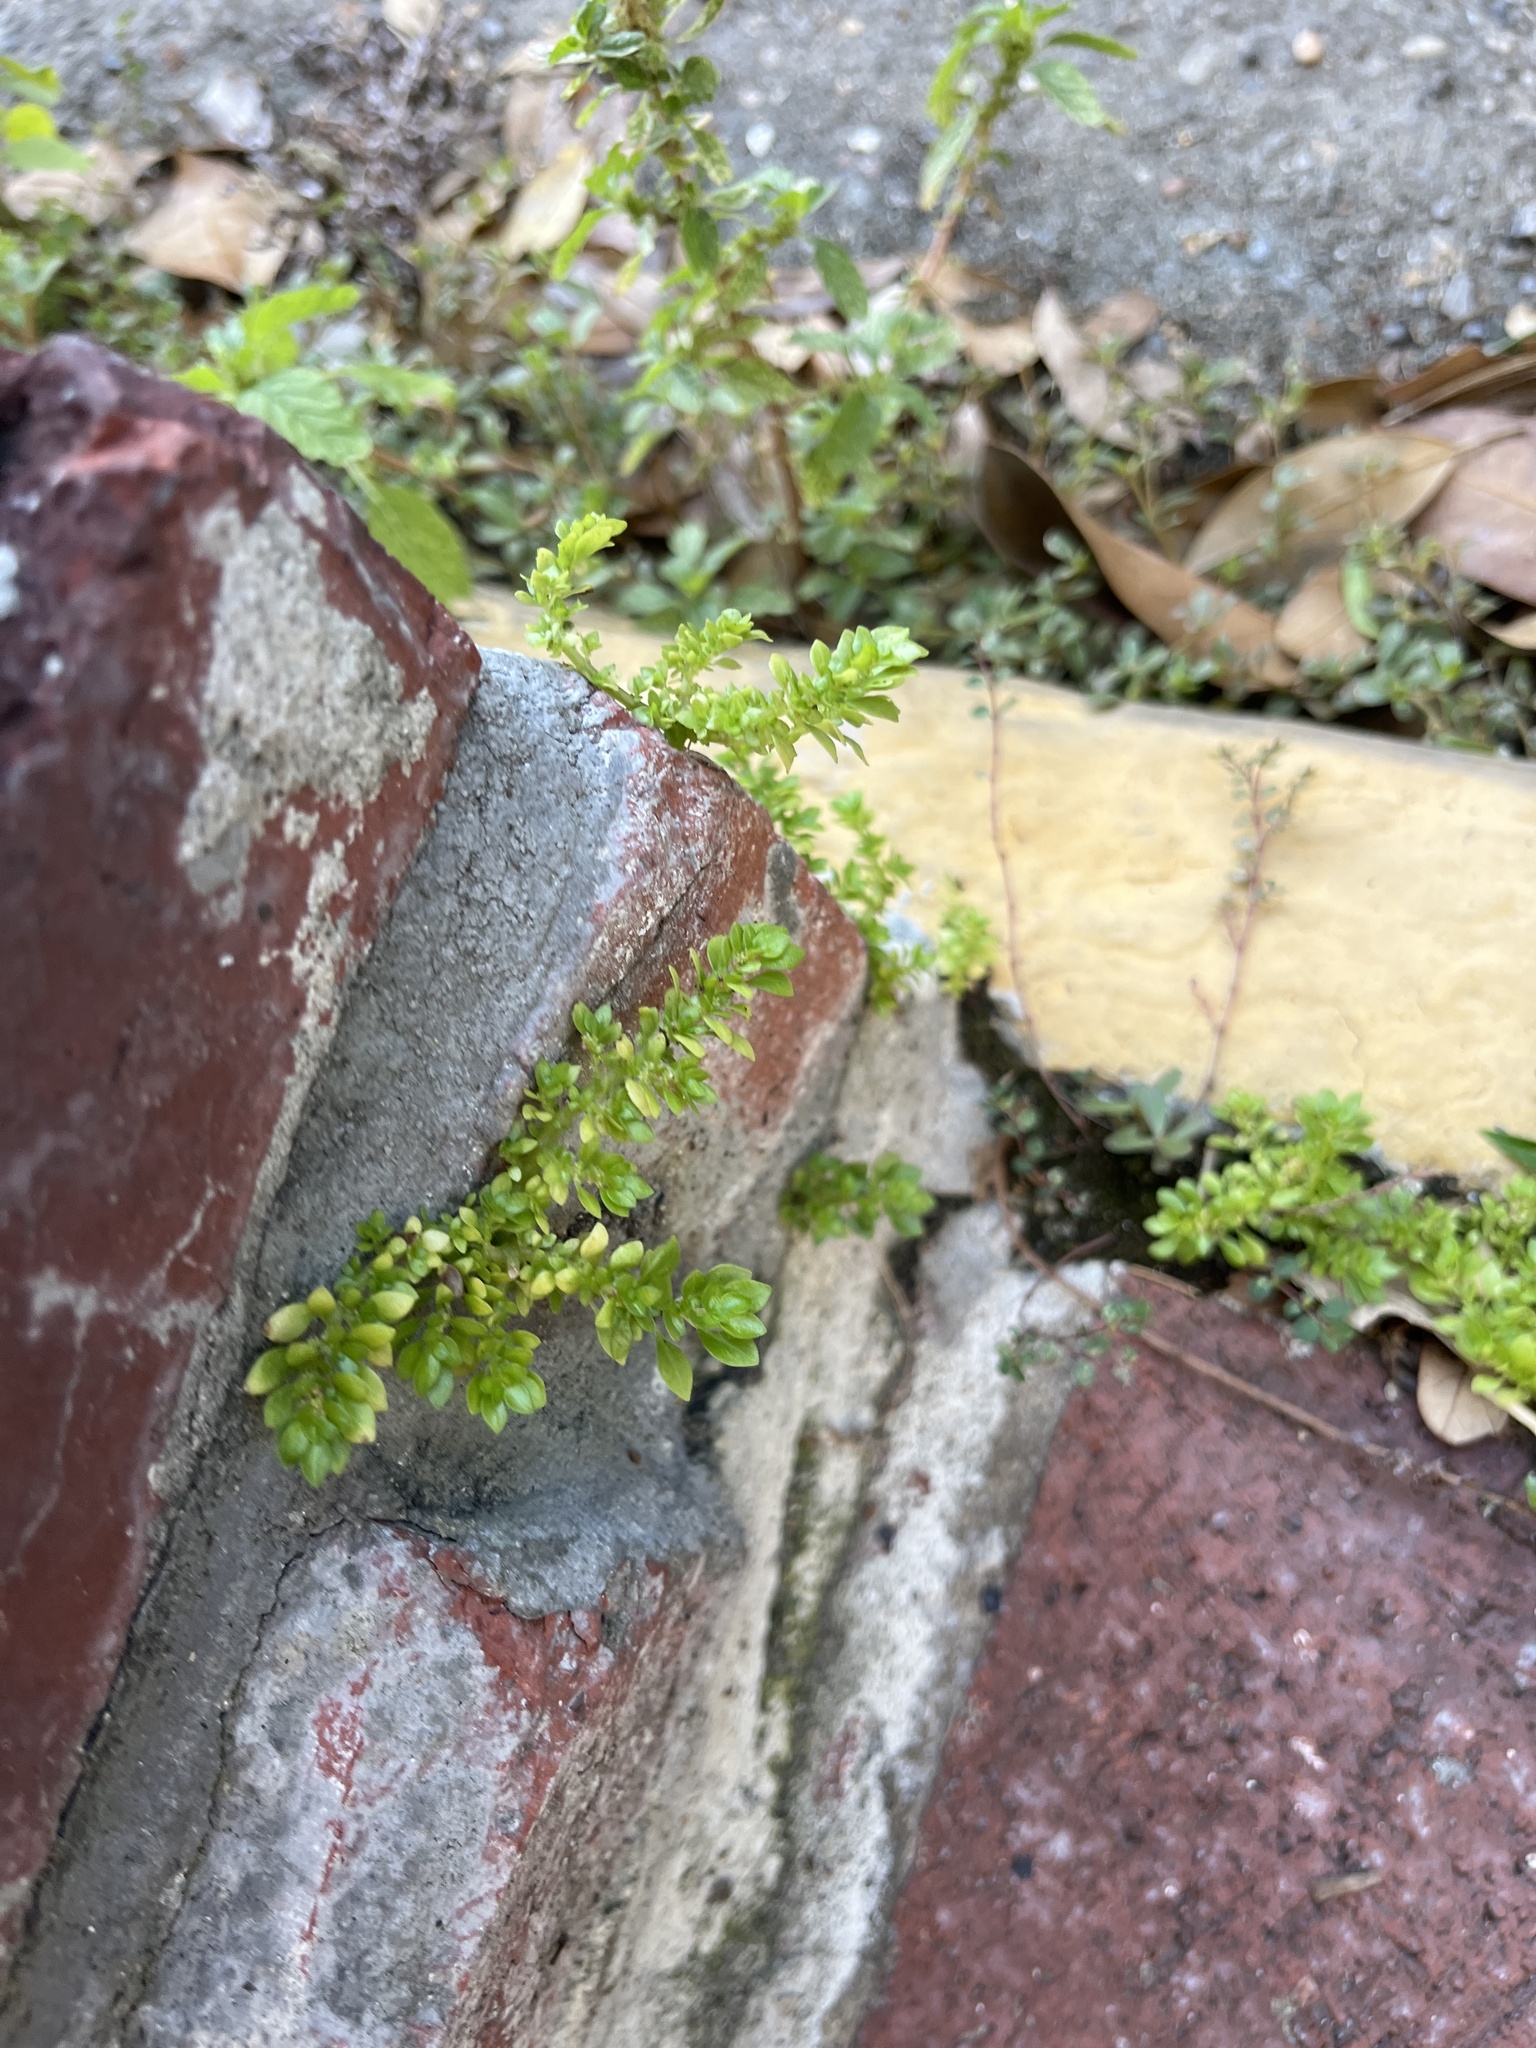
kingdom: Plantae
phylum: Tracheophyta
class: Magnoliopsida
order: Rosales
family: Urticaceae
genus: Pilea
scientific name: Pilea microphylla
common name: Artillery-plant
